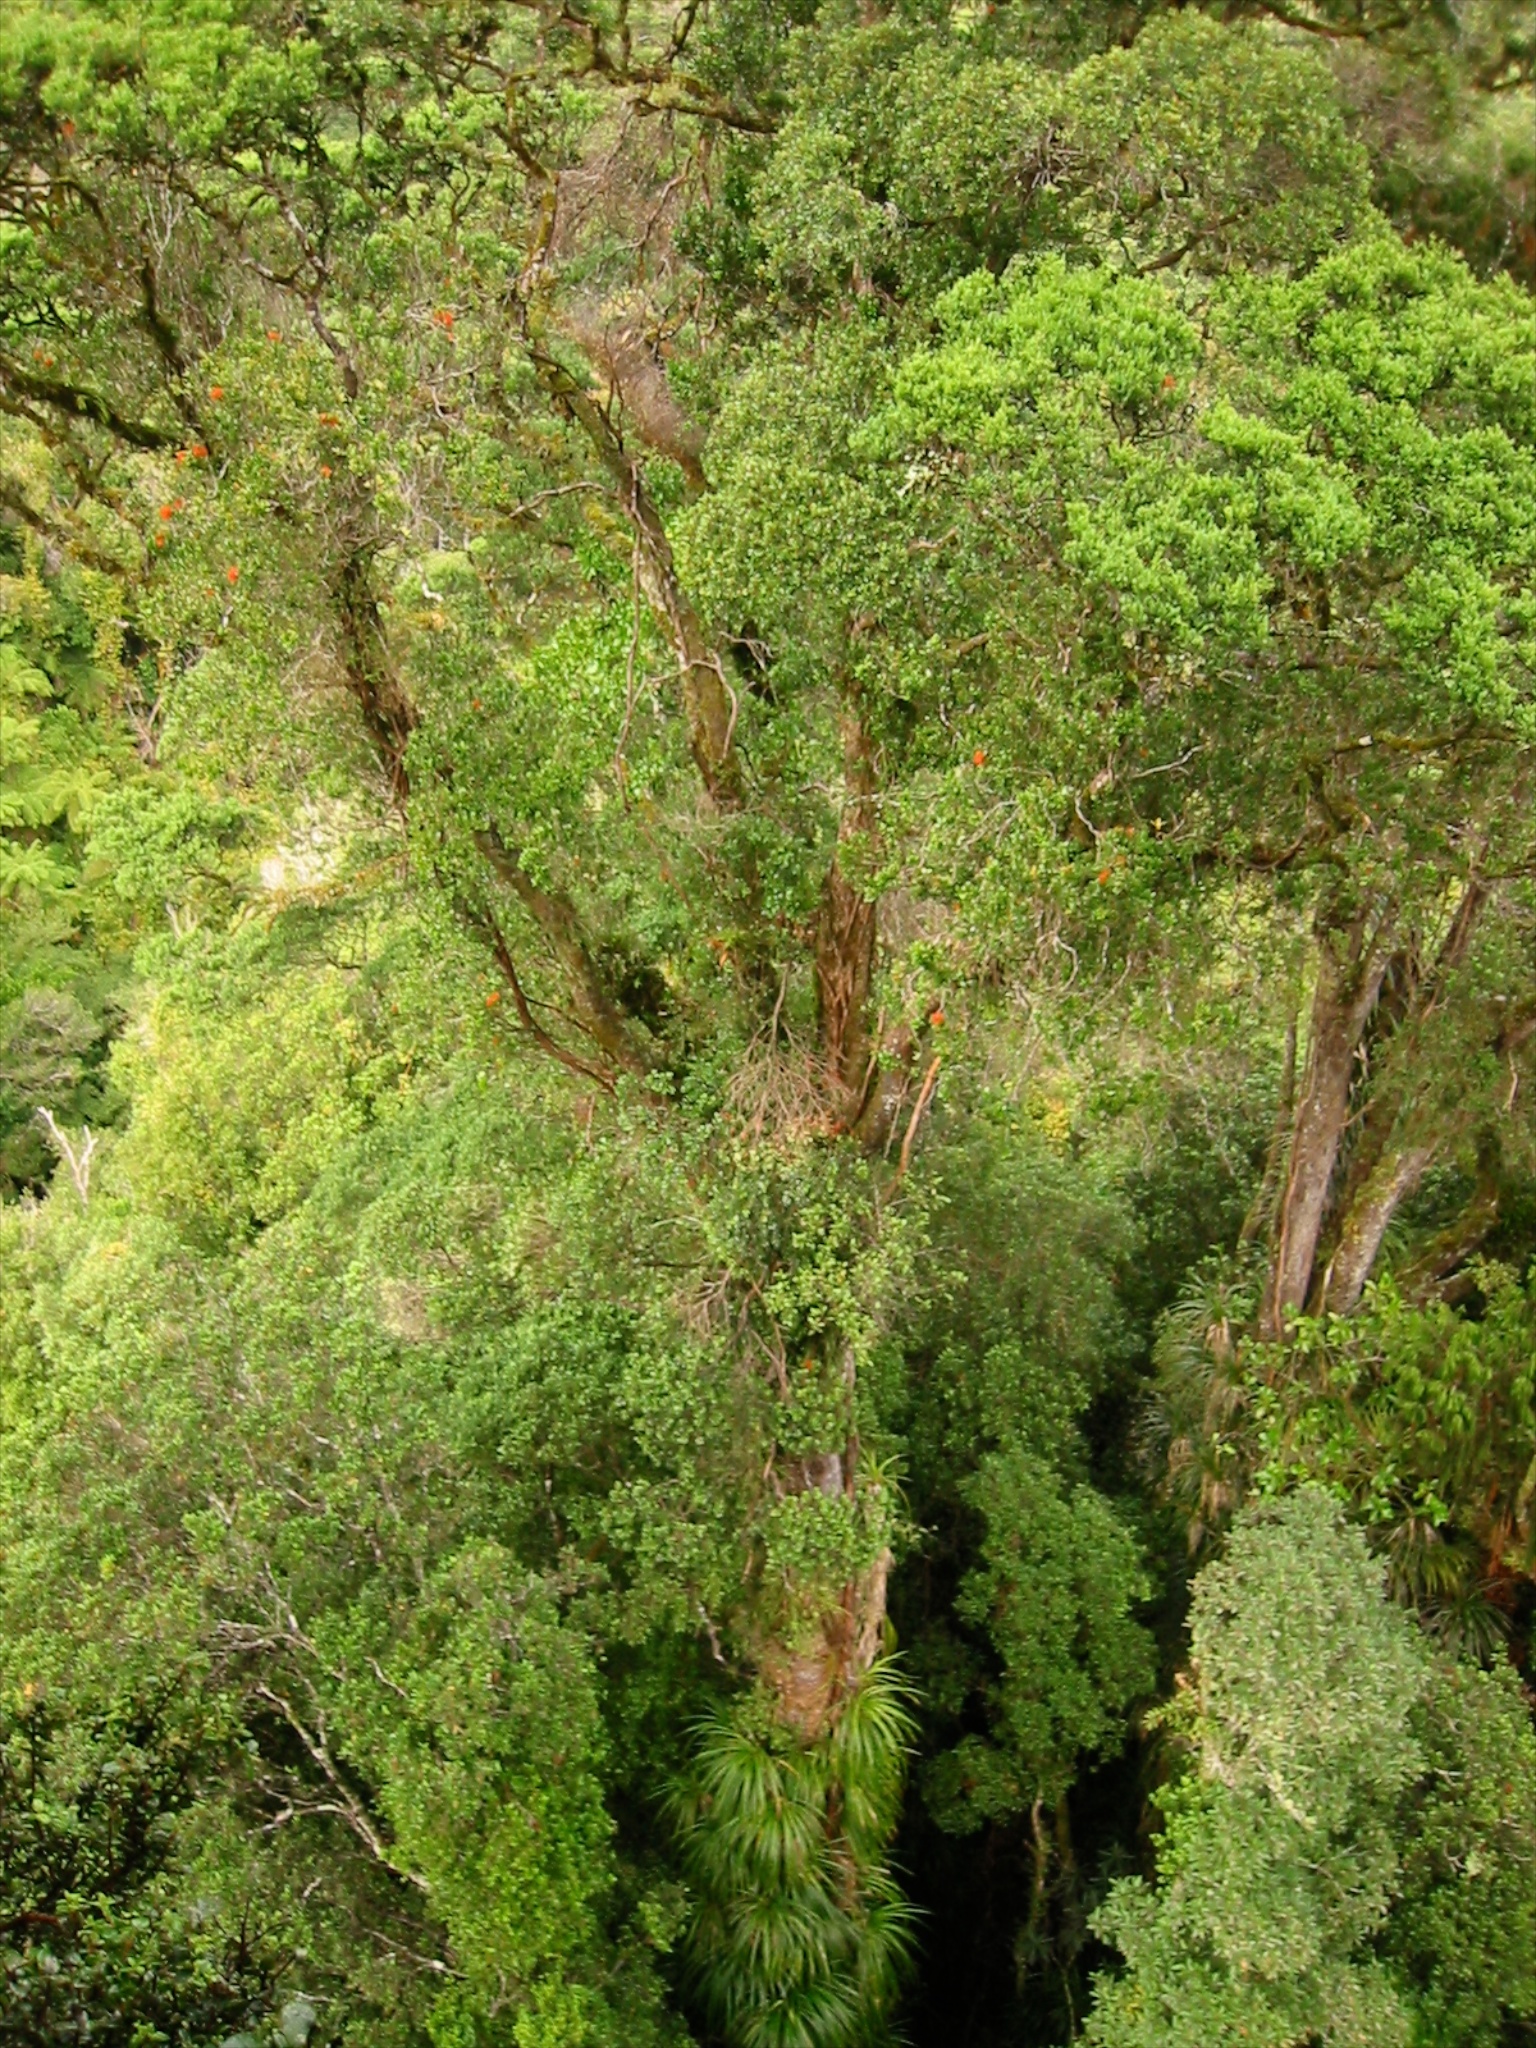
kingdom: Plantae
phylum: Tracheophyta
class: Magnoliopsida
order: Myrtales
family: Myrtaceae
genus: Metrosideros
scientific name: Metrosideros robusta
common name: Northern rata
